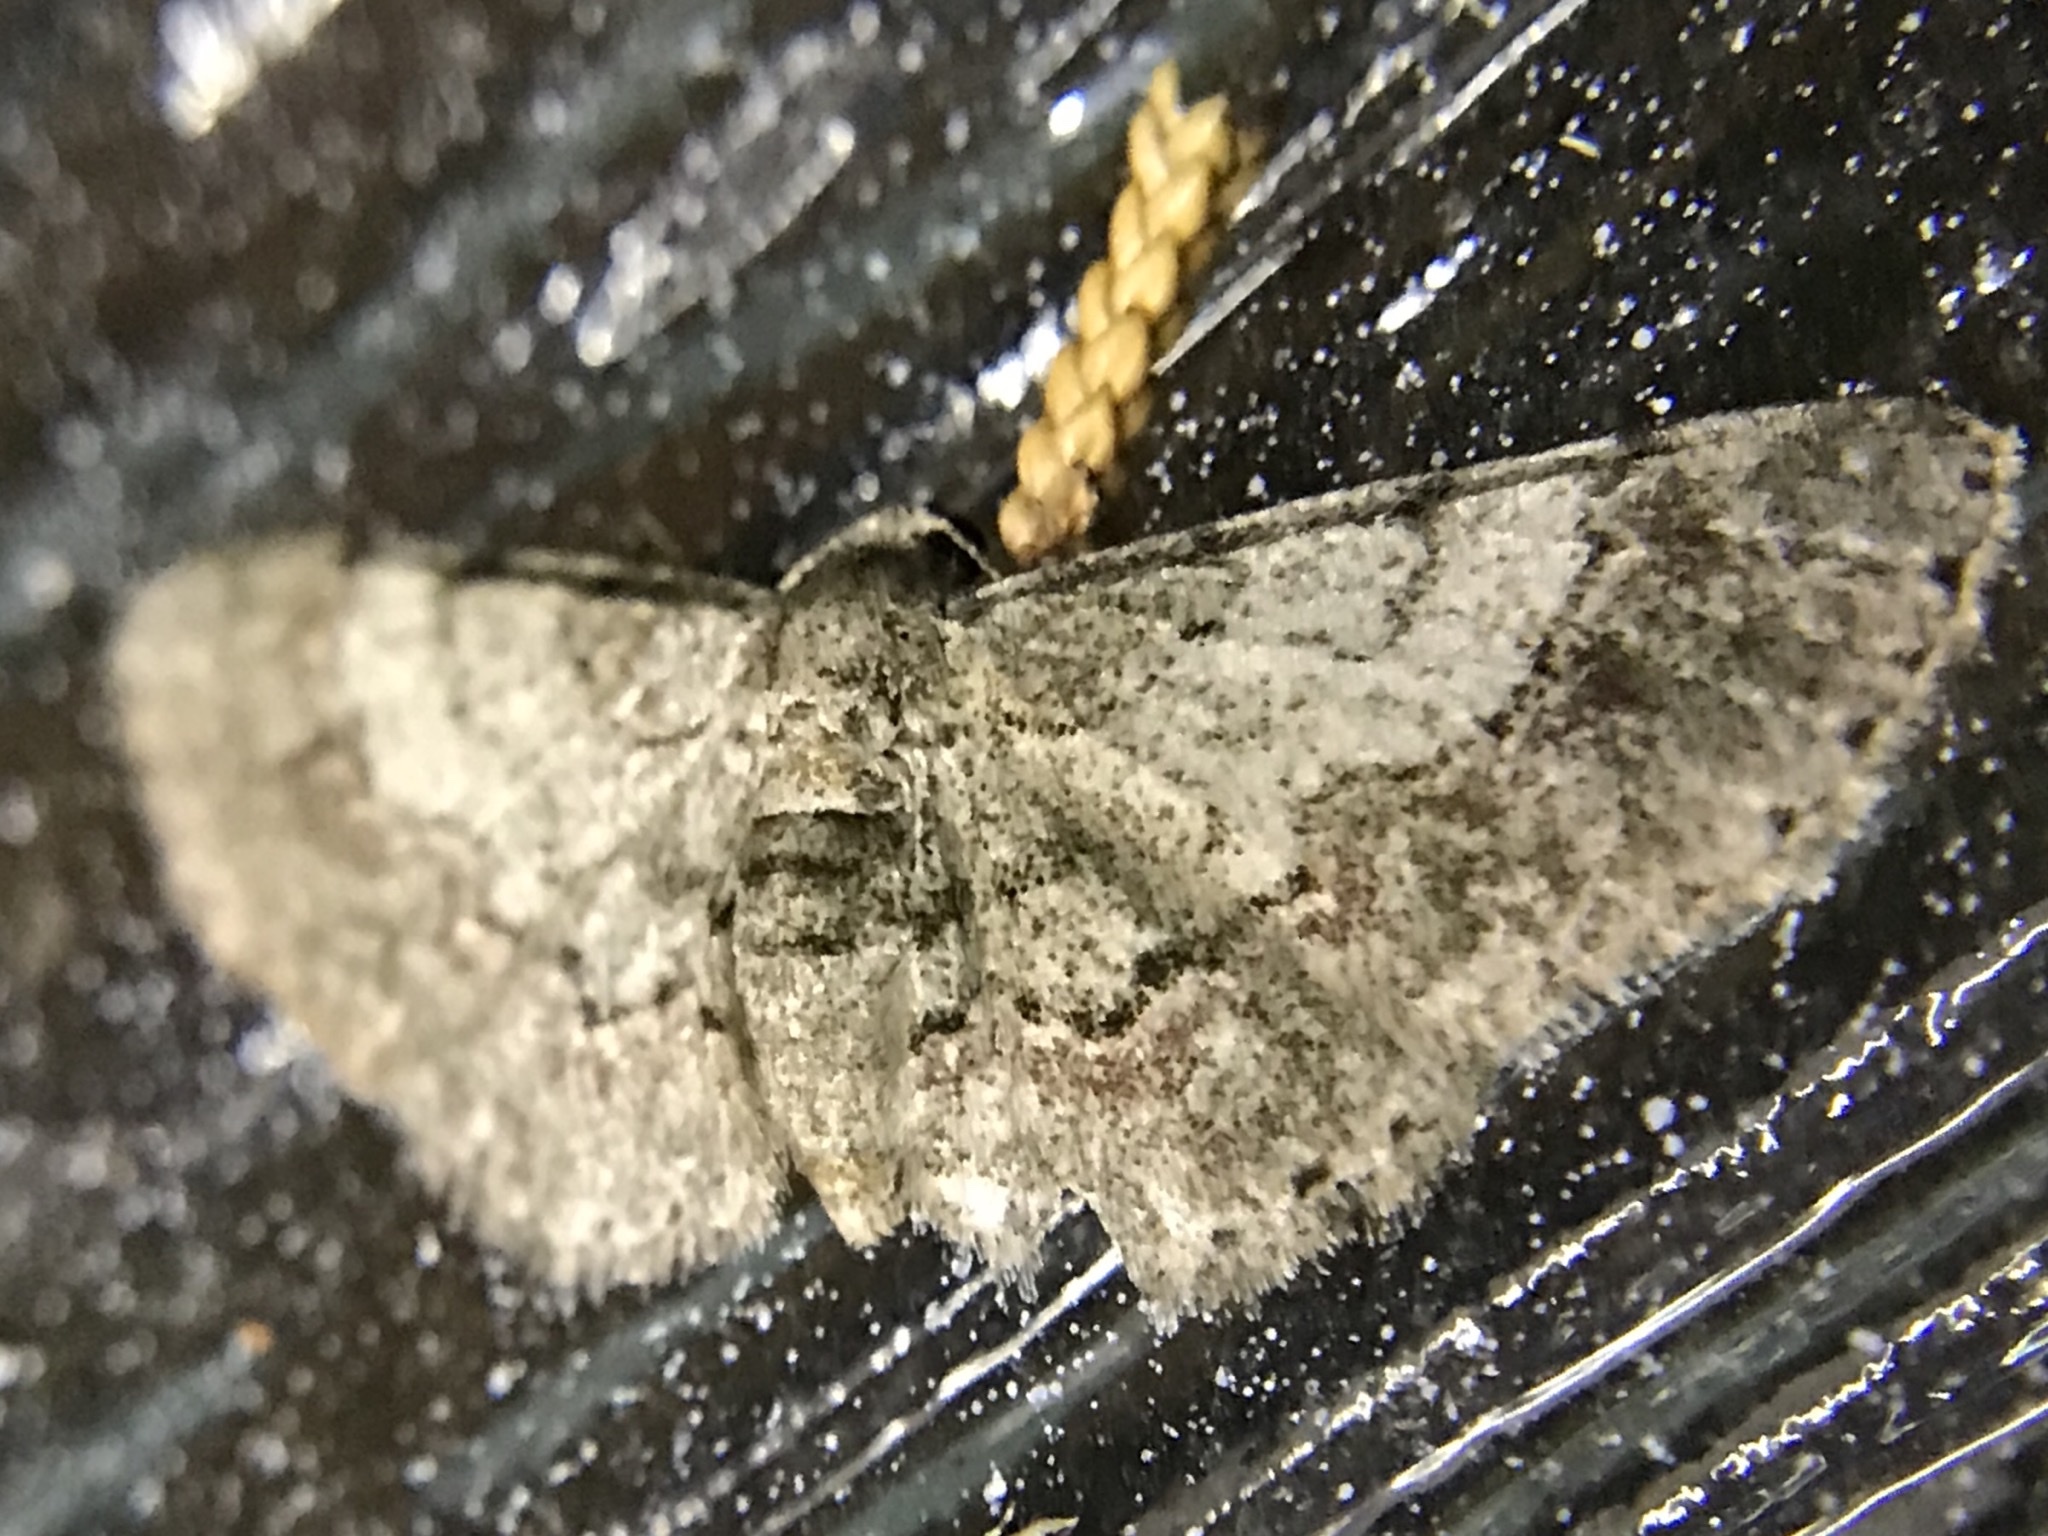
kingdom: Animalia
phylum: Arthropoda
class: Insecta
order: Lepidoptera
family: Geometridae
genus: Glenoides
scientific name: Glenoides texanaria
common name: Texas gray
